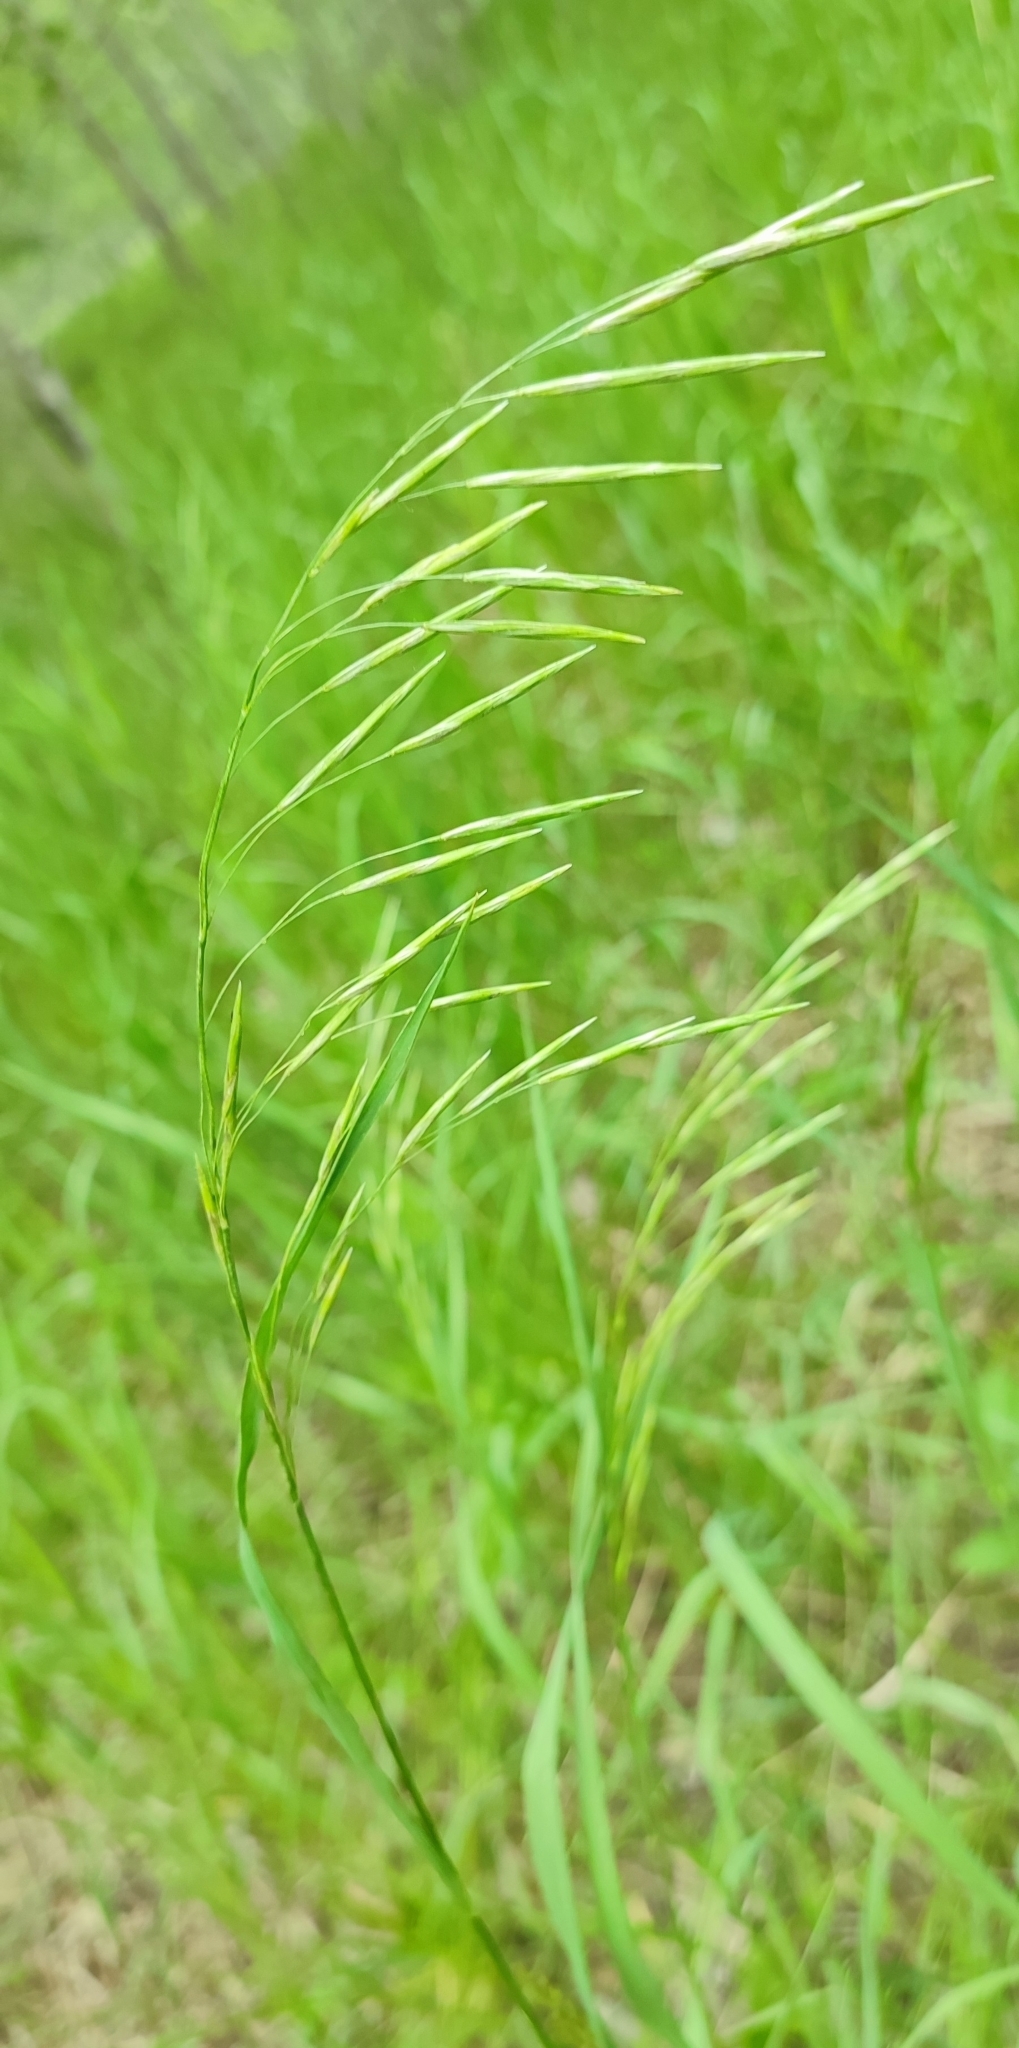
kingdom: Plantae
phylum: Tracheophyta
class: Liliopsida
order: Poales
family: Poaceae
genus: Bromus
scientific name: Bromus inermis
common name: Smooth brome
